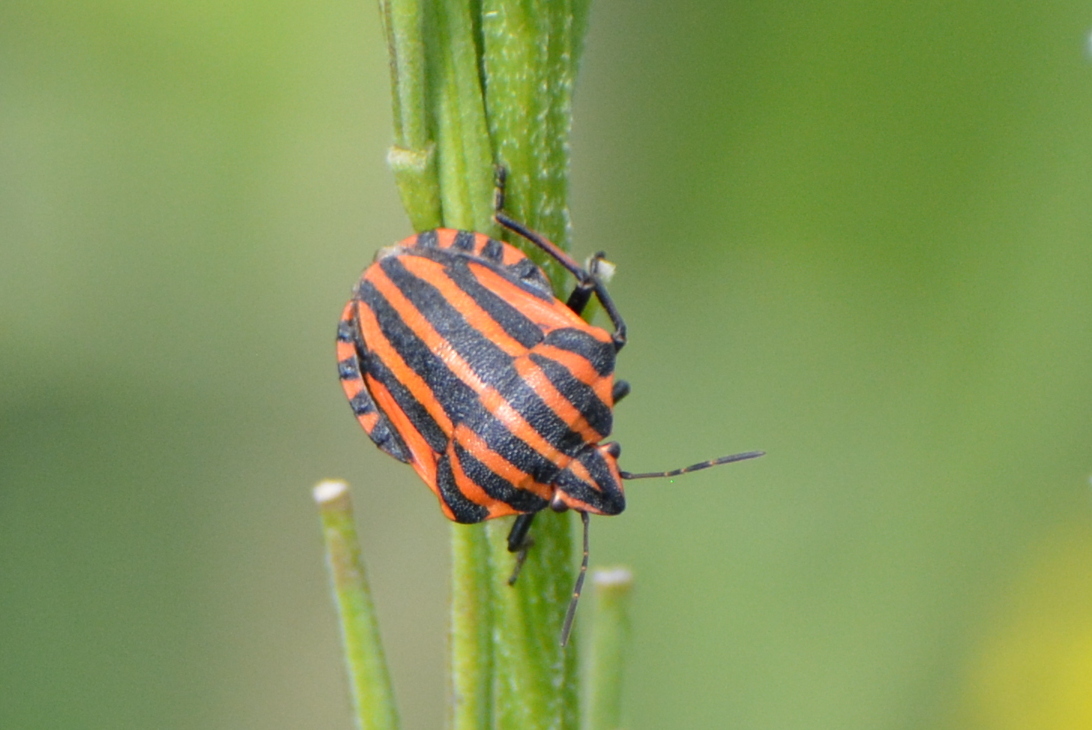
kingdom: Animalia
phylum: Arthropoda
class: Insecta
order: Hemiptera
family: Pentatomidae
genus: Graphosoma
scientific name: Graphosoma italicum
